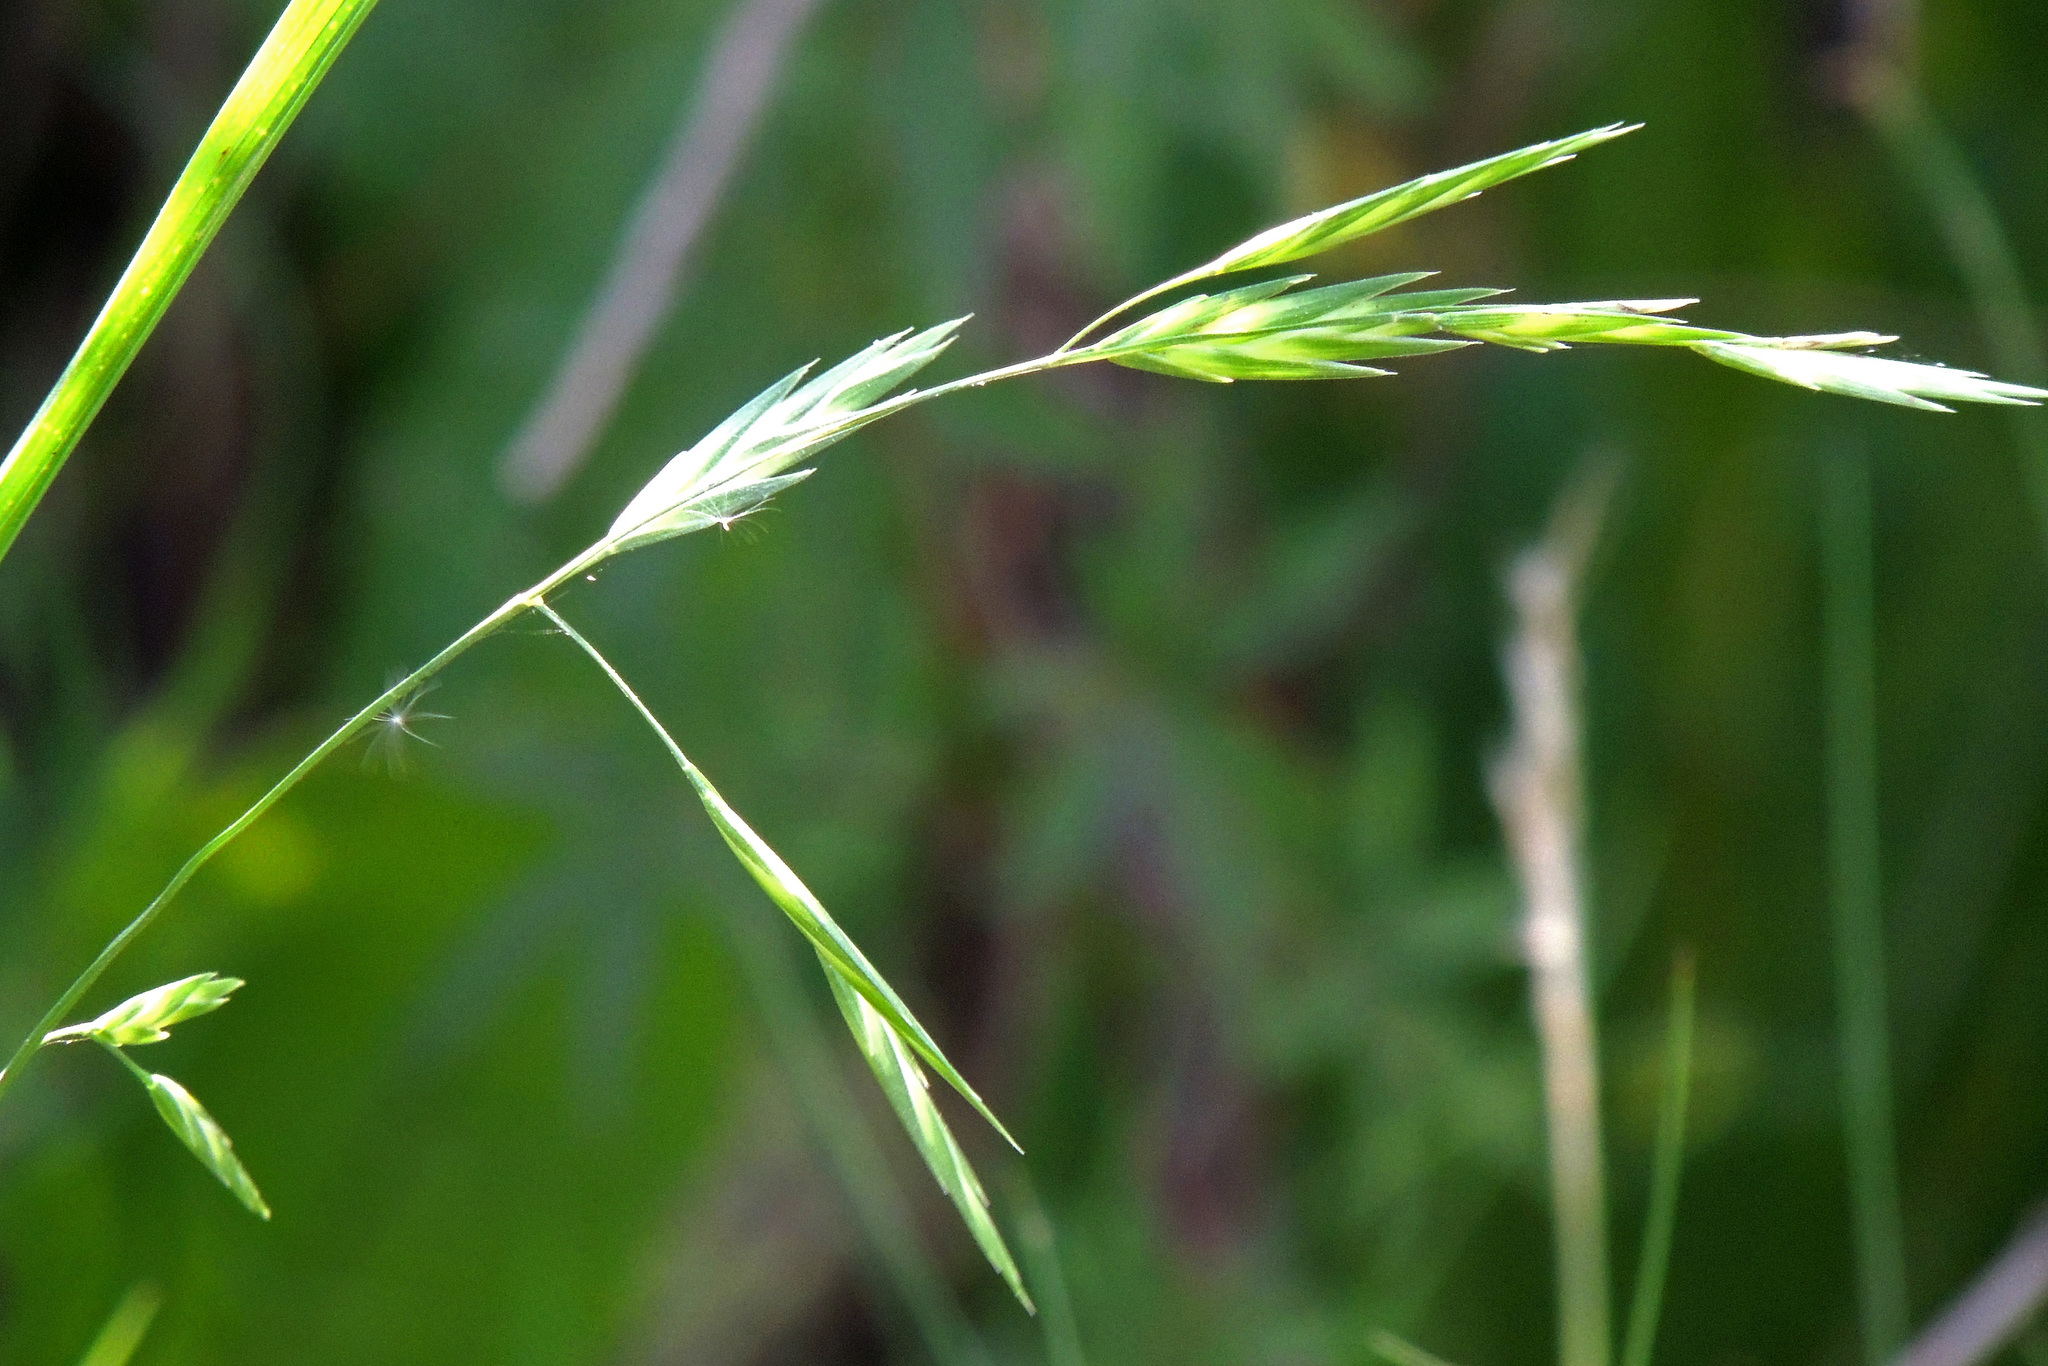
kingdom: Plantae
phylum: Tracheophyta
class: Liliopsida
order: Poales
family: Poaceae
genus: Bromus
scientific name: Bromus catharticus
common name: Rescuegrass
